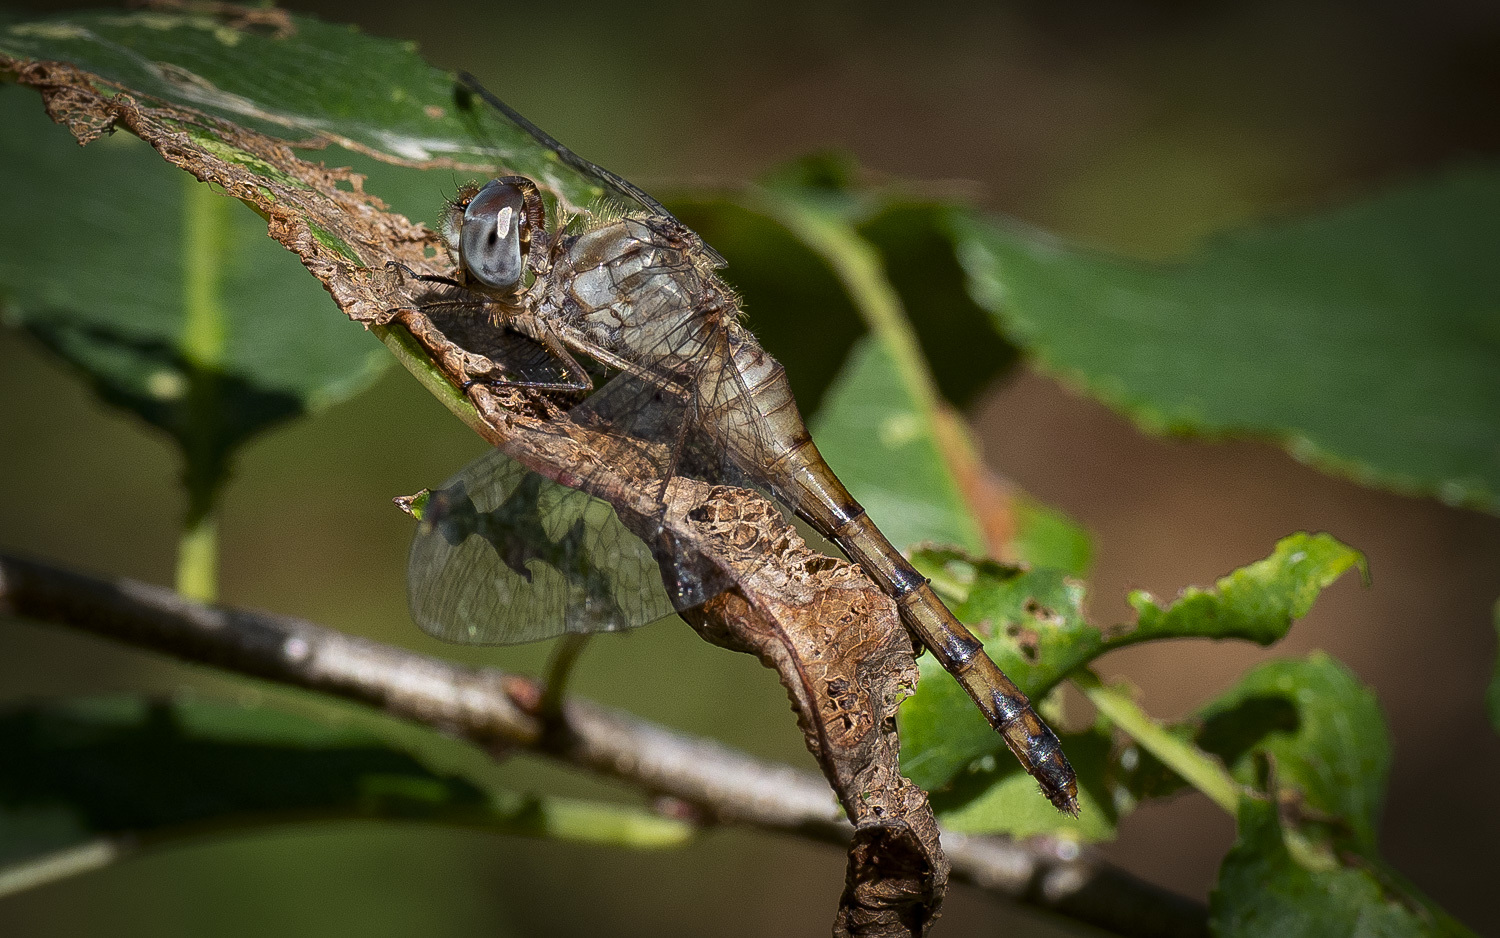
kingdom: Animalia
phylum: Arthropoda
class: Insecta
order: Odonata
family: Libellulidae
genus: Sympetrum
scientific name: Sympetrum ambiguum
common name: Blue-faced meadowhawk
